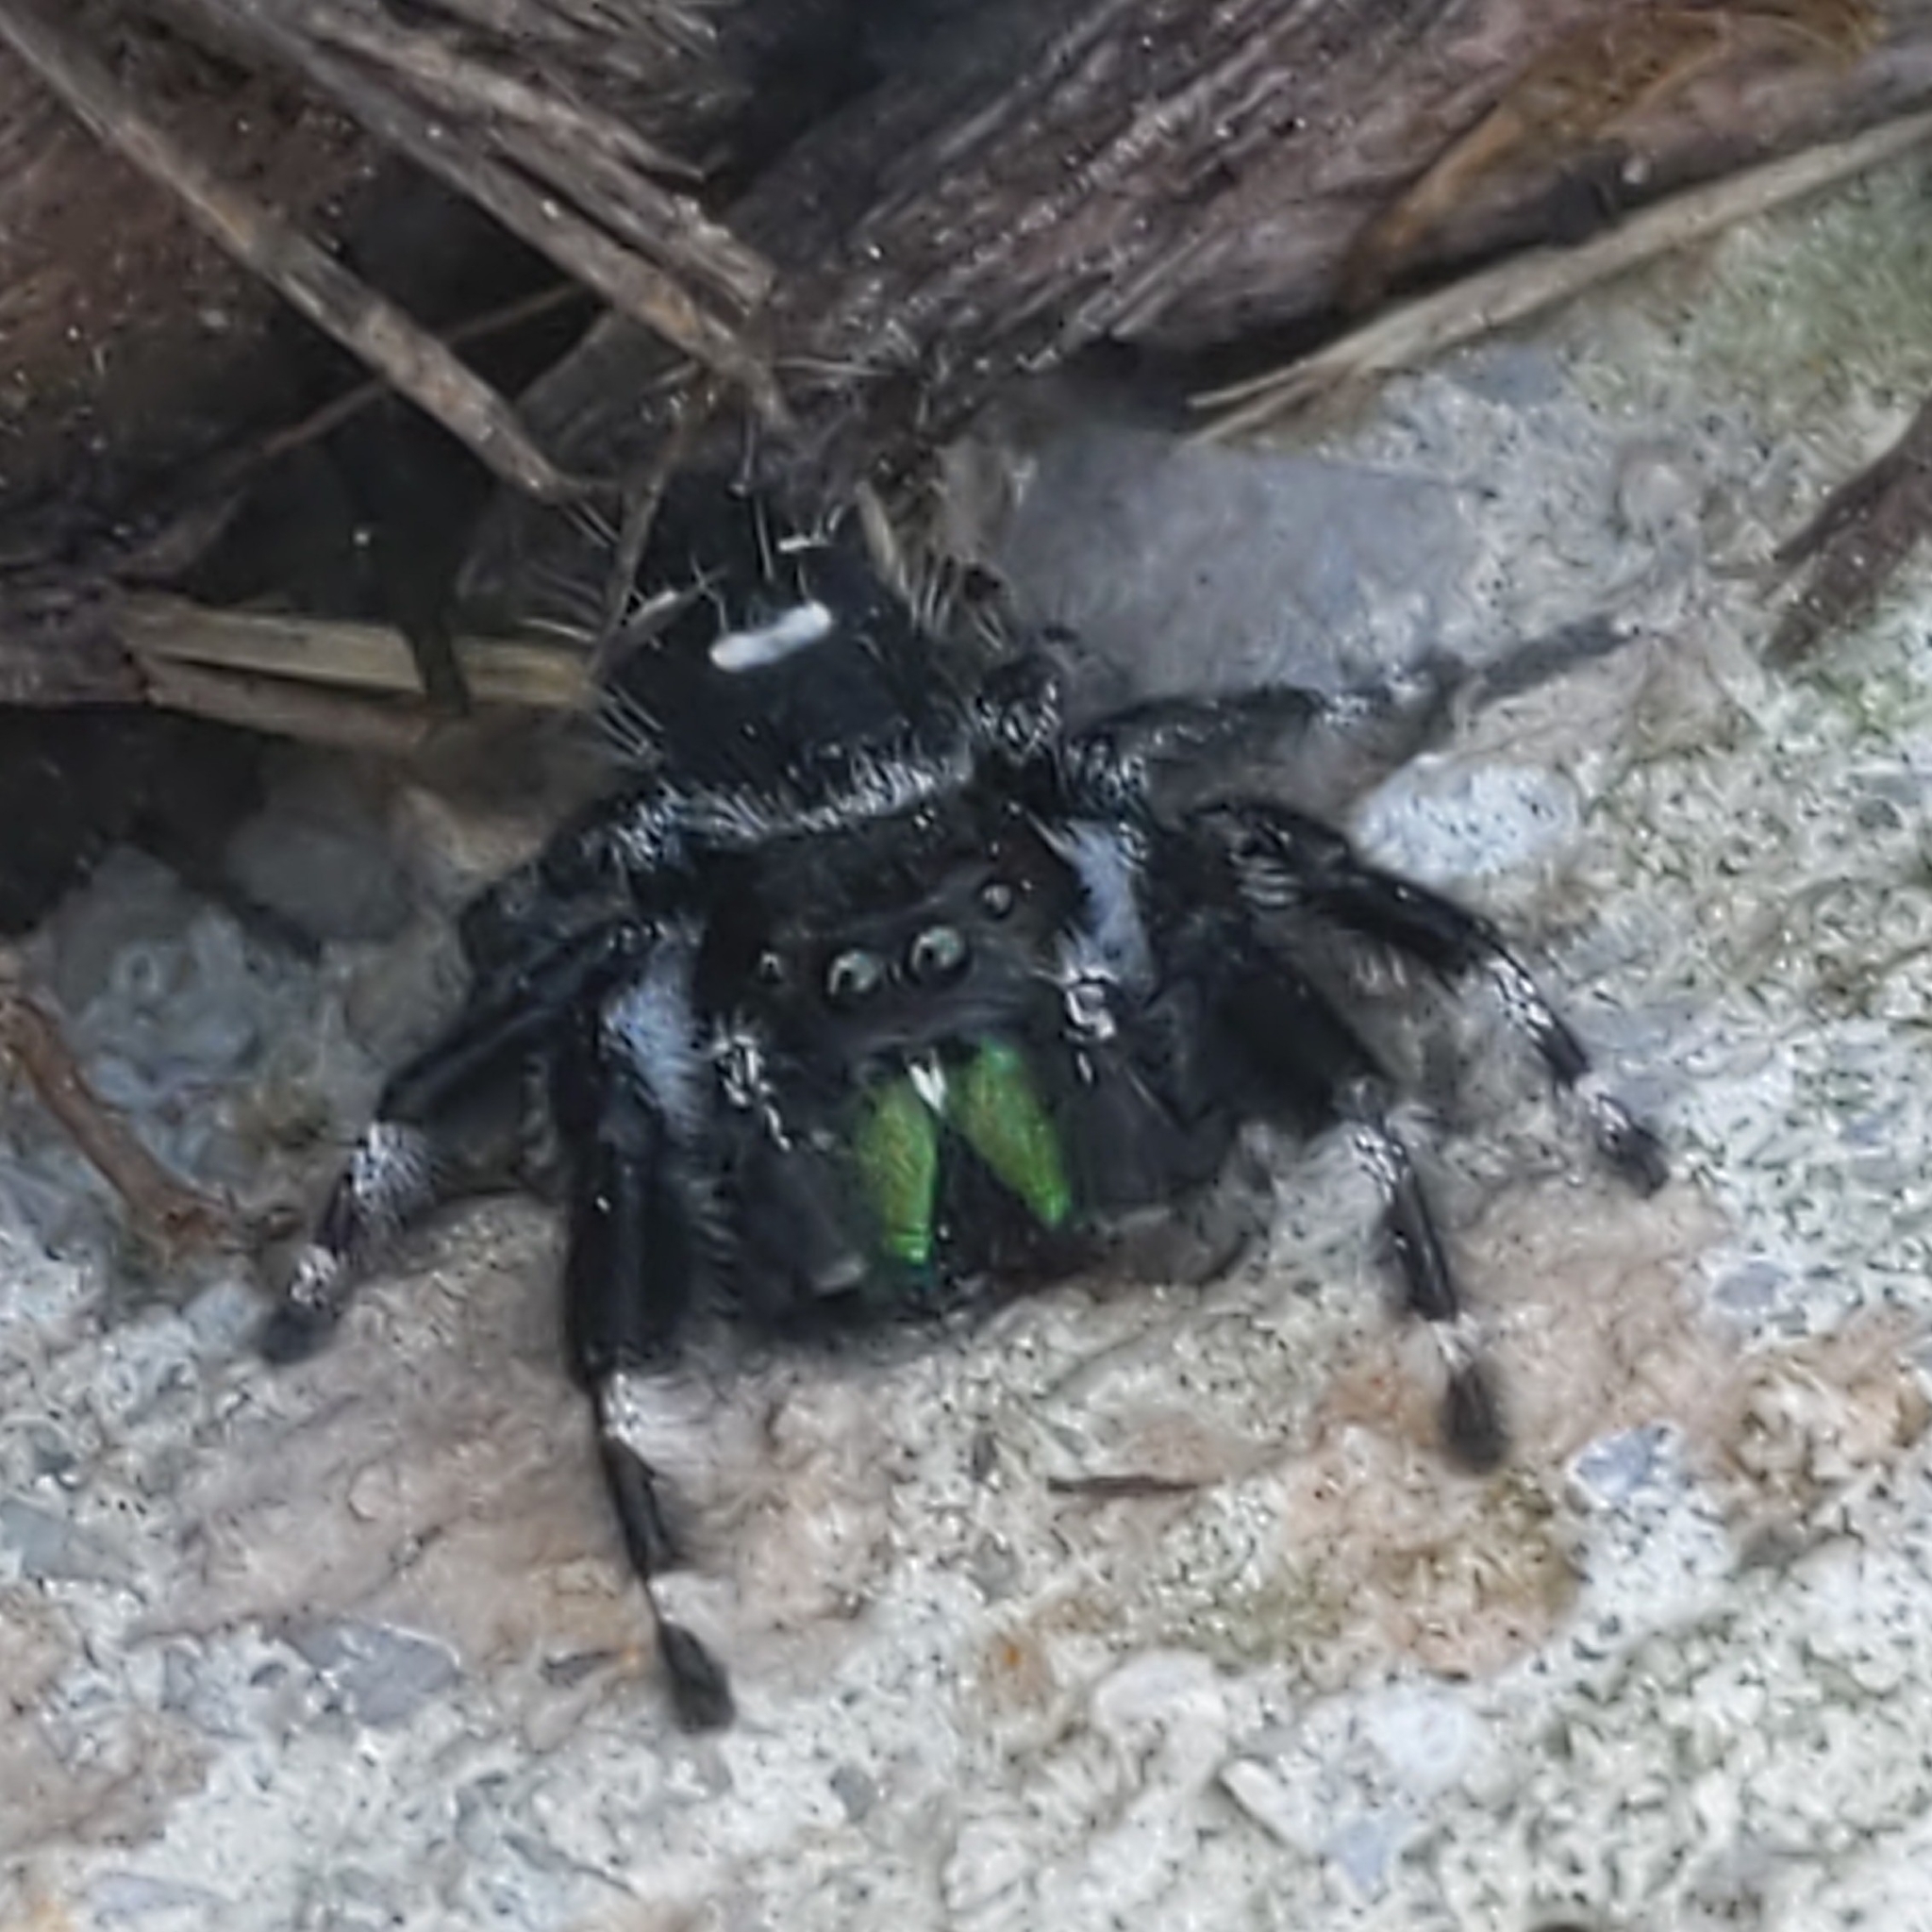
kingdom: Animalia
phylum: Arthropoda
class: Arachnida
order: Araneae
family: Salticidae
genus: Phidippus
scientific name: Phidippus audax
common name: Bold jumper
